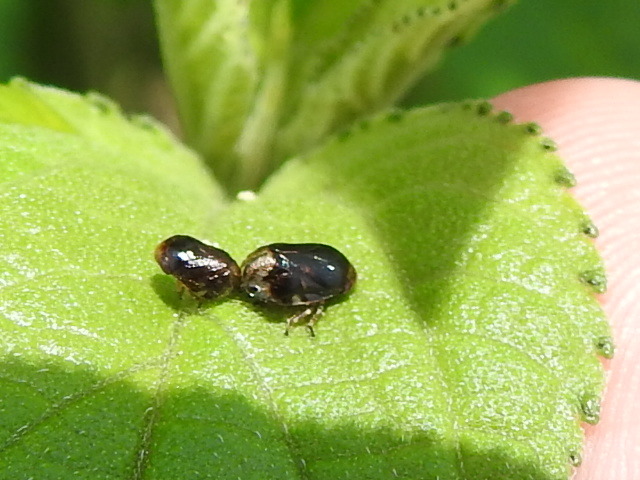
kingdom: Animalia
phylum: Arthropoda
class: Insecta
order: Hemiptera
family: Clastopteridae
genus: Clastoptera
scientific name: Clastoptera xanthocephala
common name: Sunflower spittlebug
